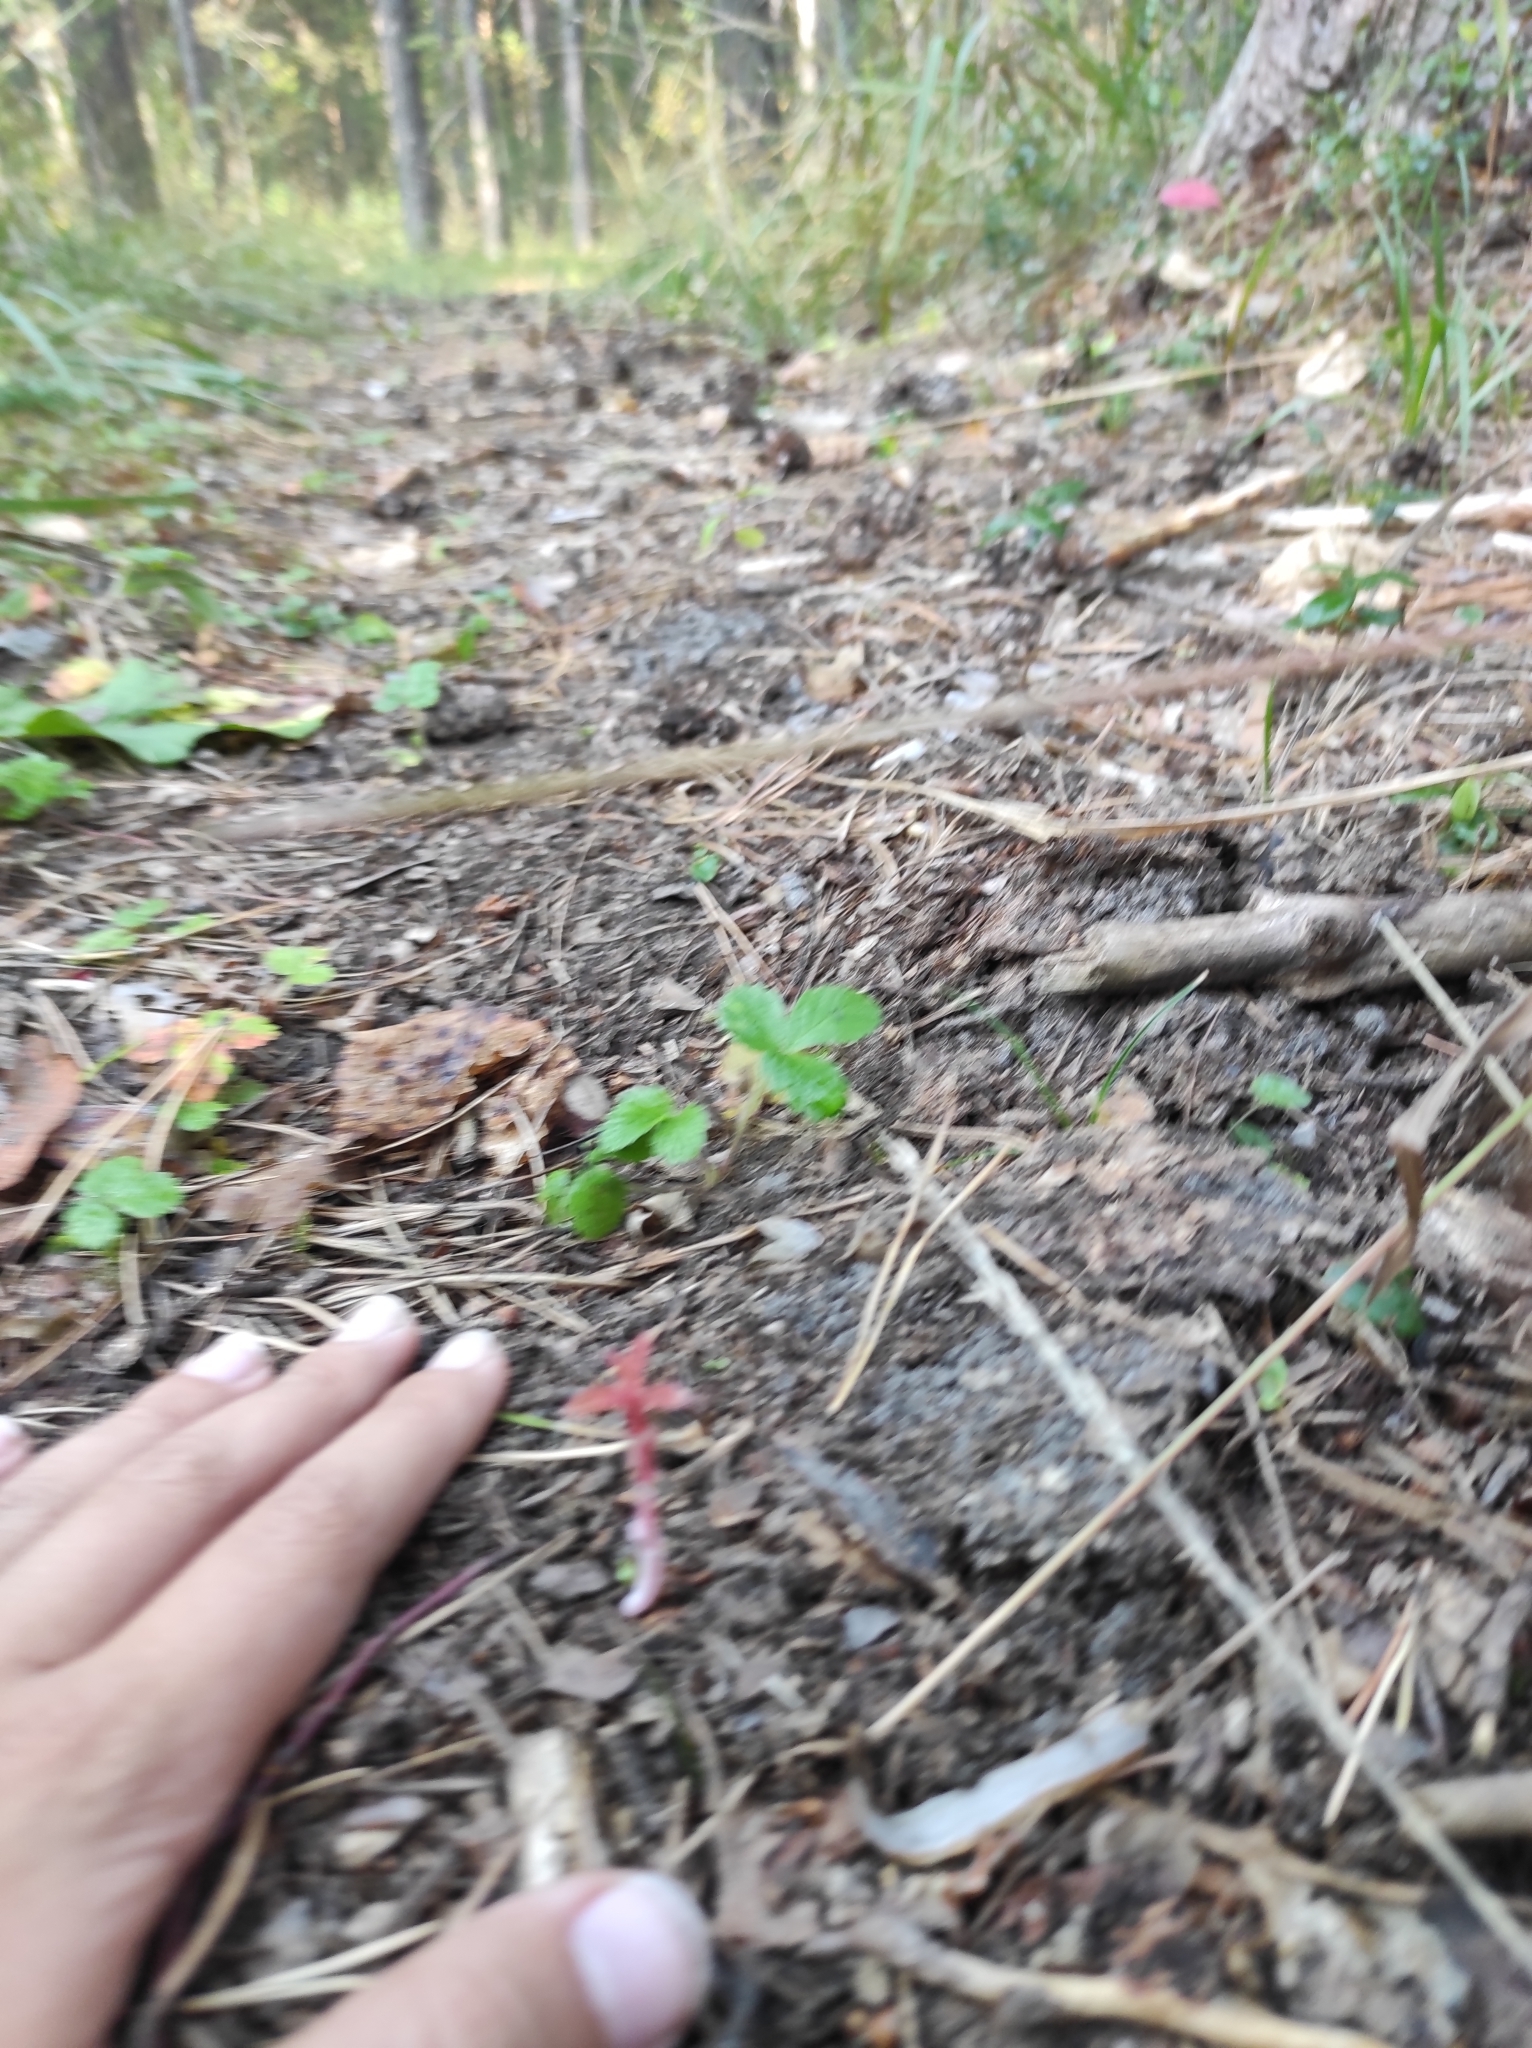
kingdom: Plantae
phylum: Tracheophyta
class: Magnoliopsida
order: Ericales
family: Ericaceae
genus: Vaccinium
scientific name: Vaccinium vitis-idaea
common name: Cowberry
